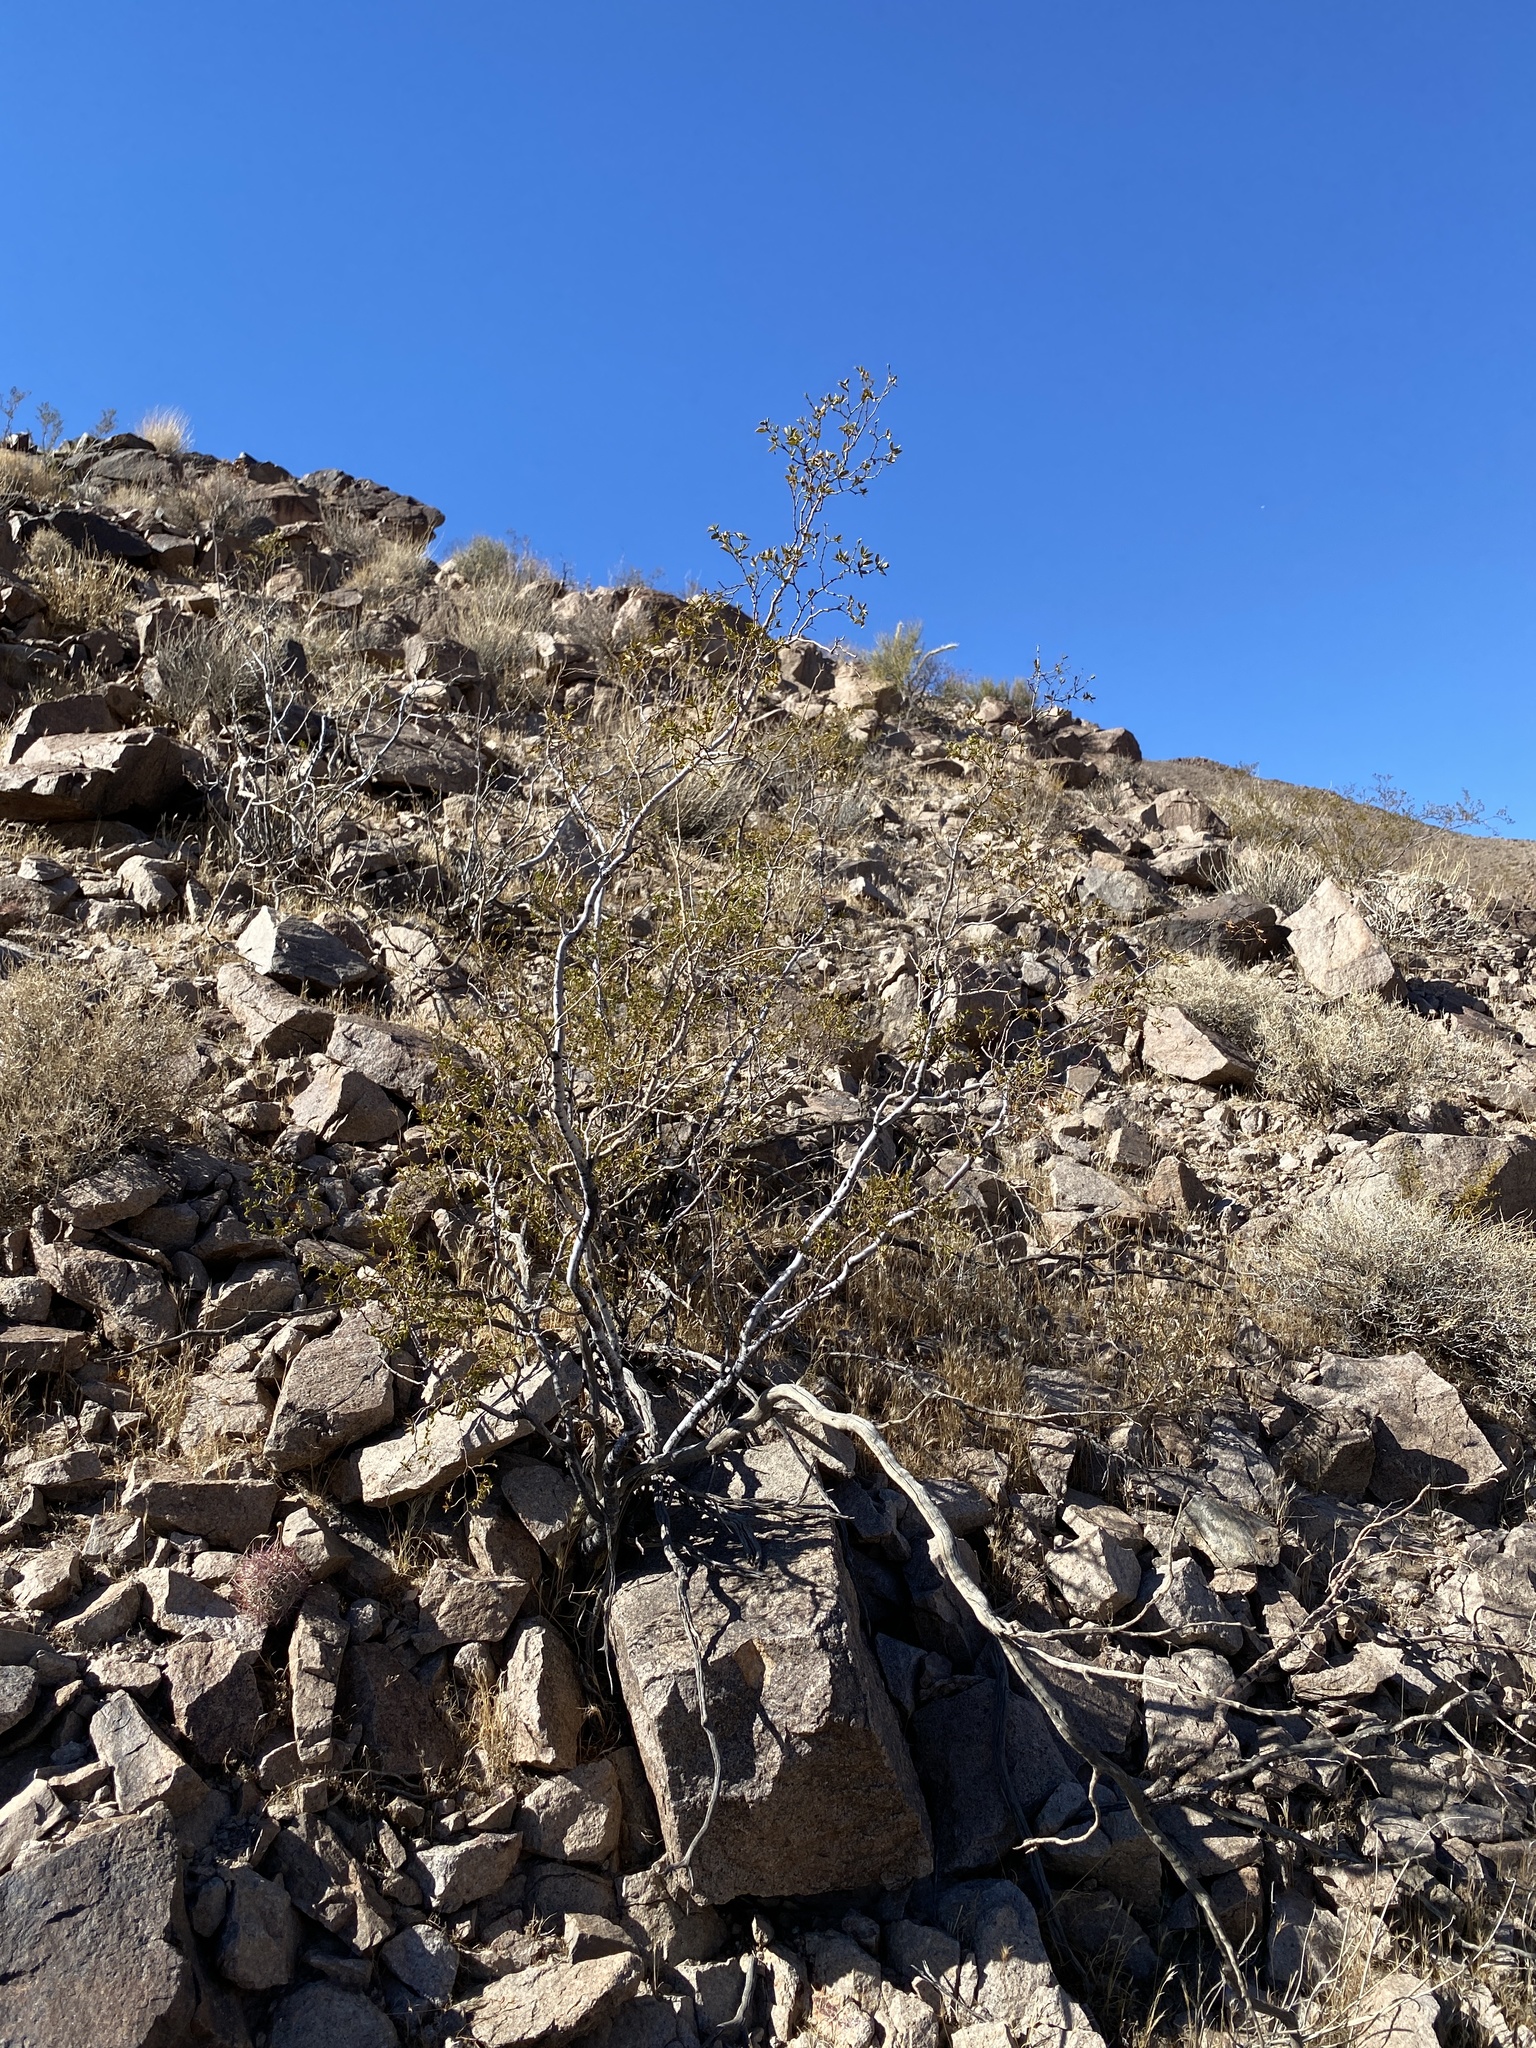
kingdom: Plantae
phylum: Tracheophyta
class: Magnoliopsida
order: Zygophyllales
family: Zygophyllaceae
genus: Larrea
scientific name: Larrea tridentata
